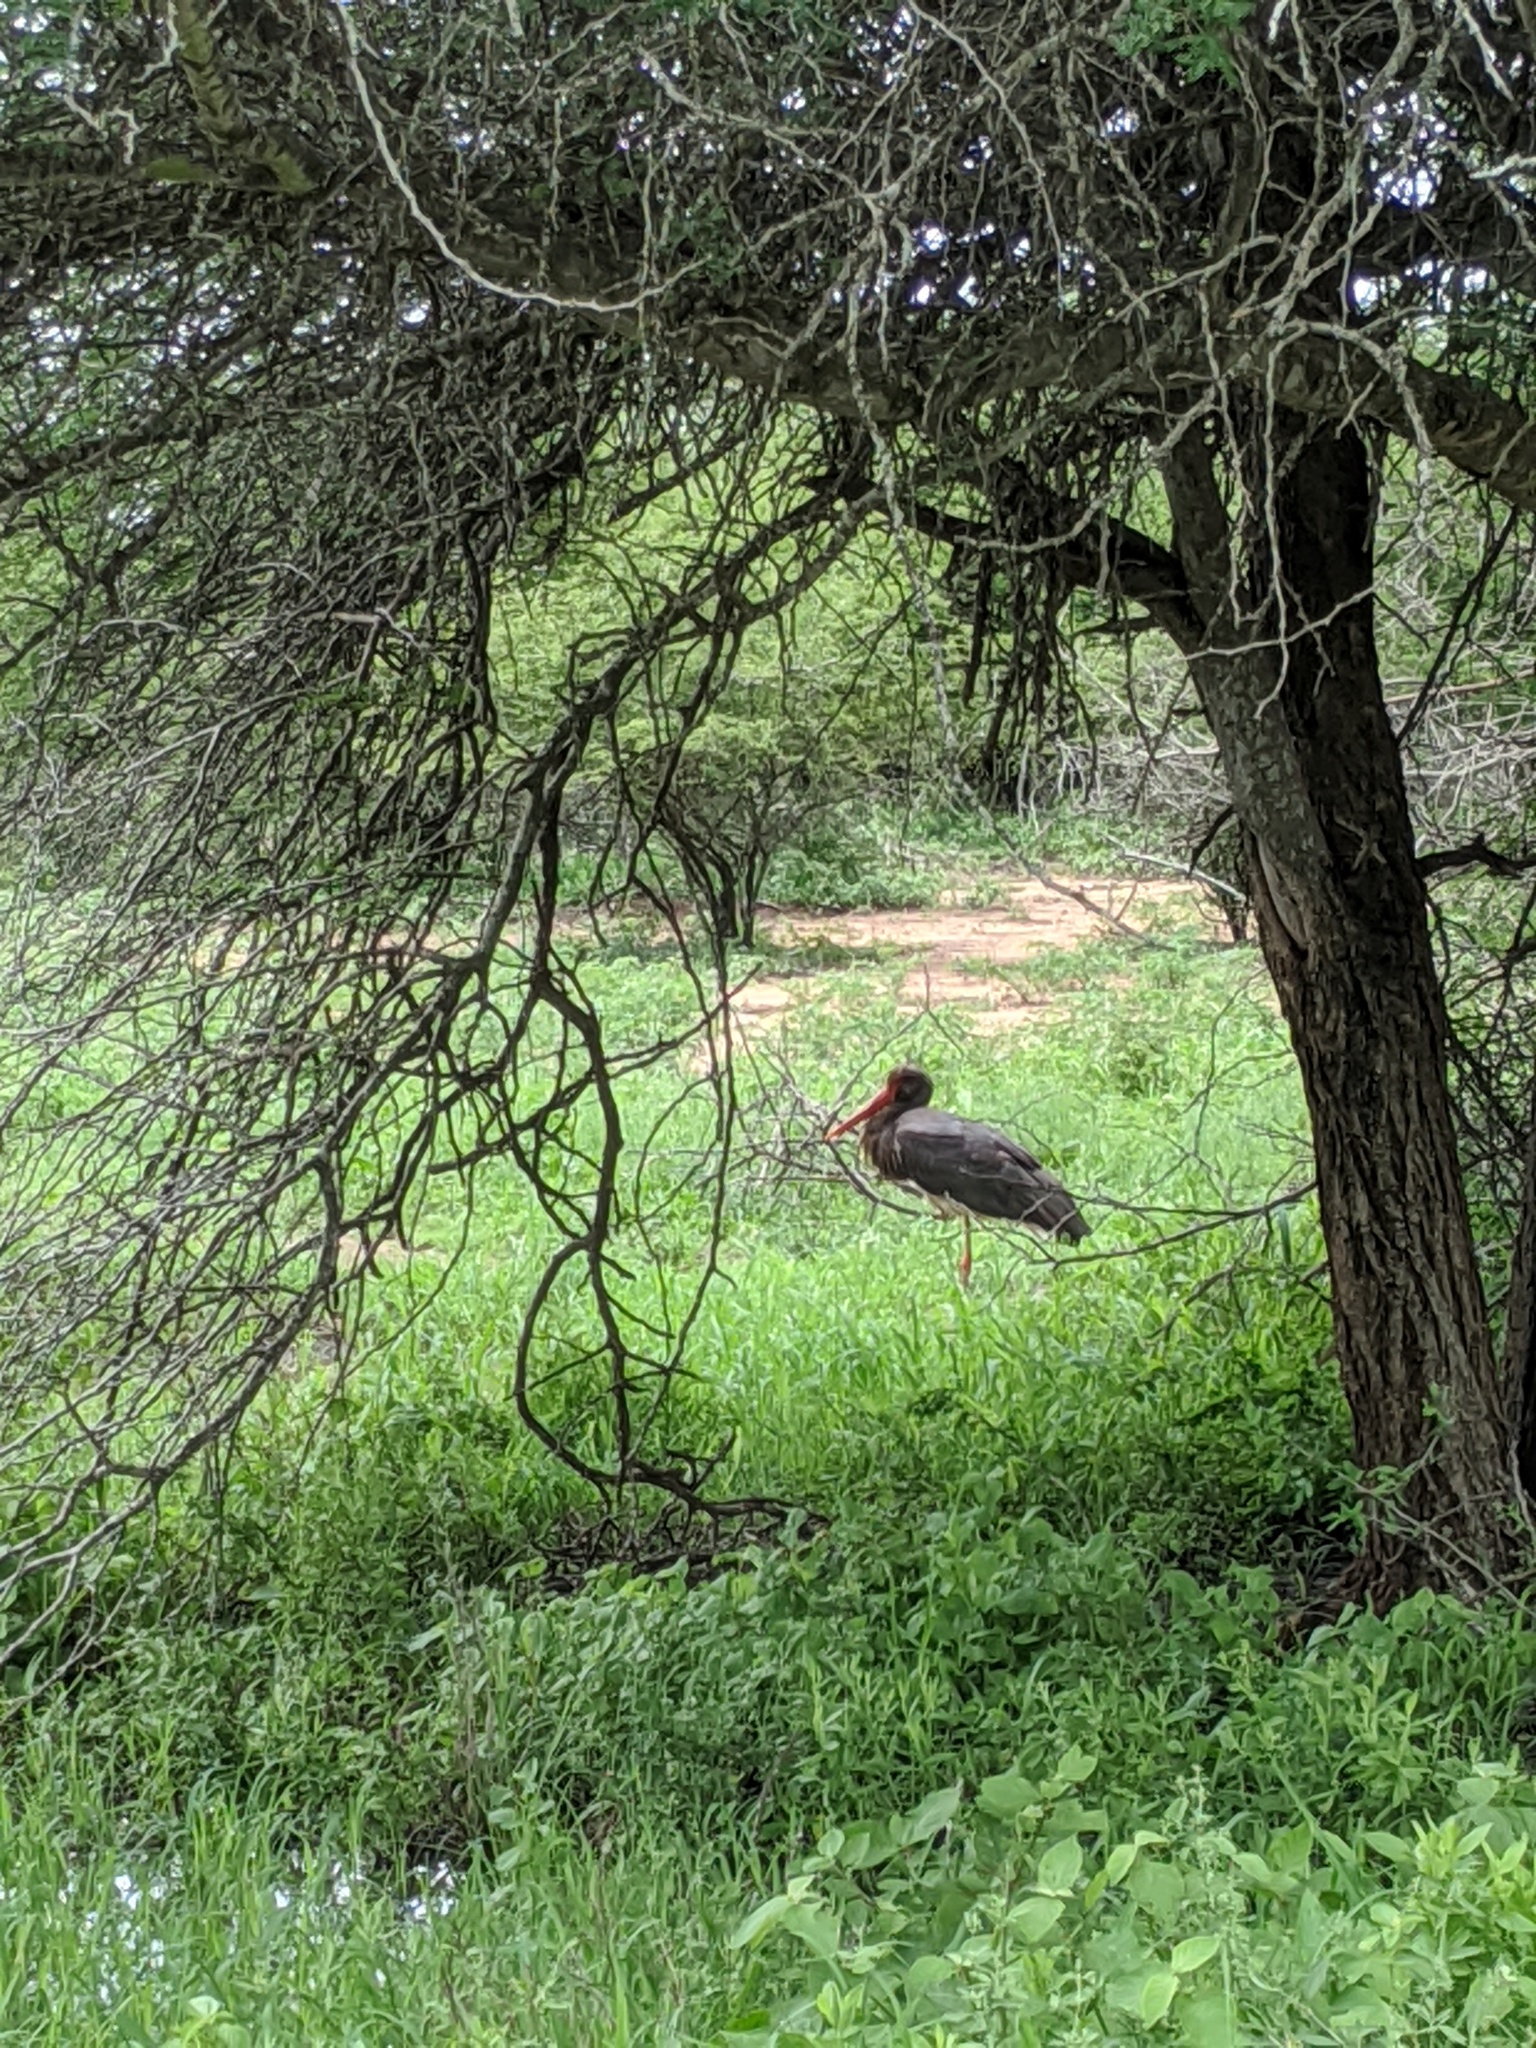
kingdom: Animalia
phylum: Chordata
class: Aves
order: Ciconiiformes
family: Ciconiidae
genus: Ciconia
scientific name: Ciconia nigra
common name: Black stork
